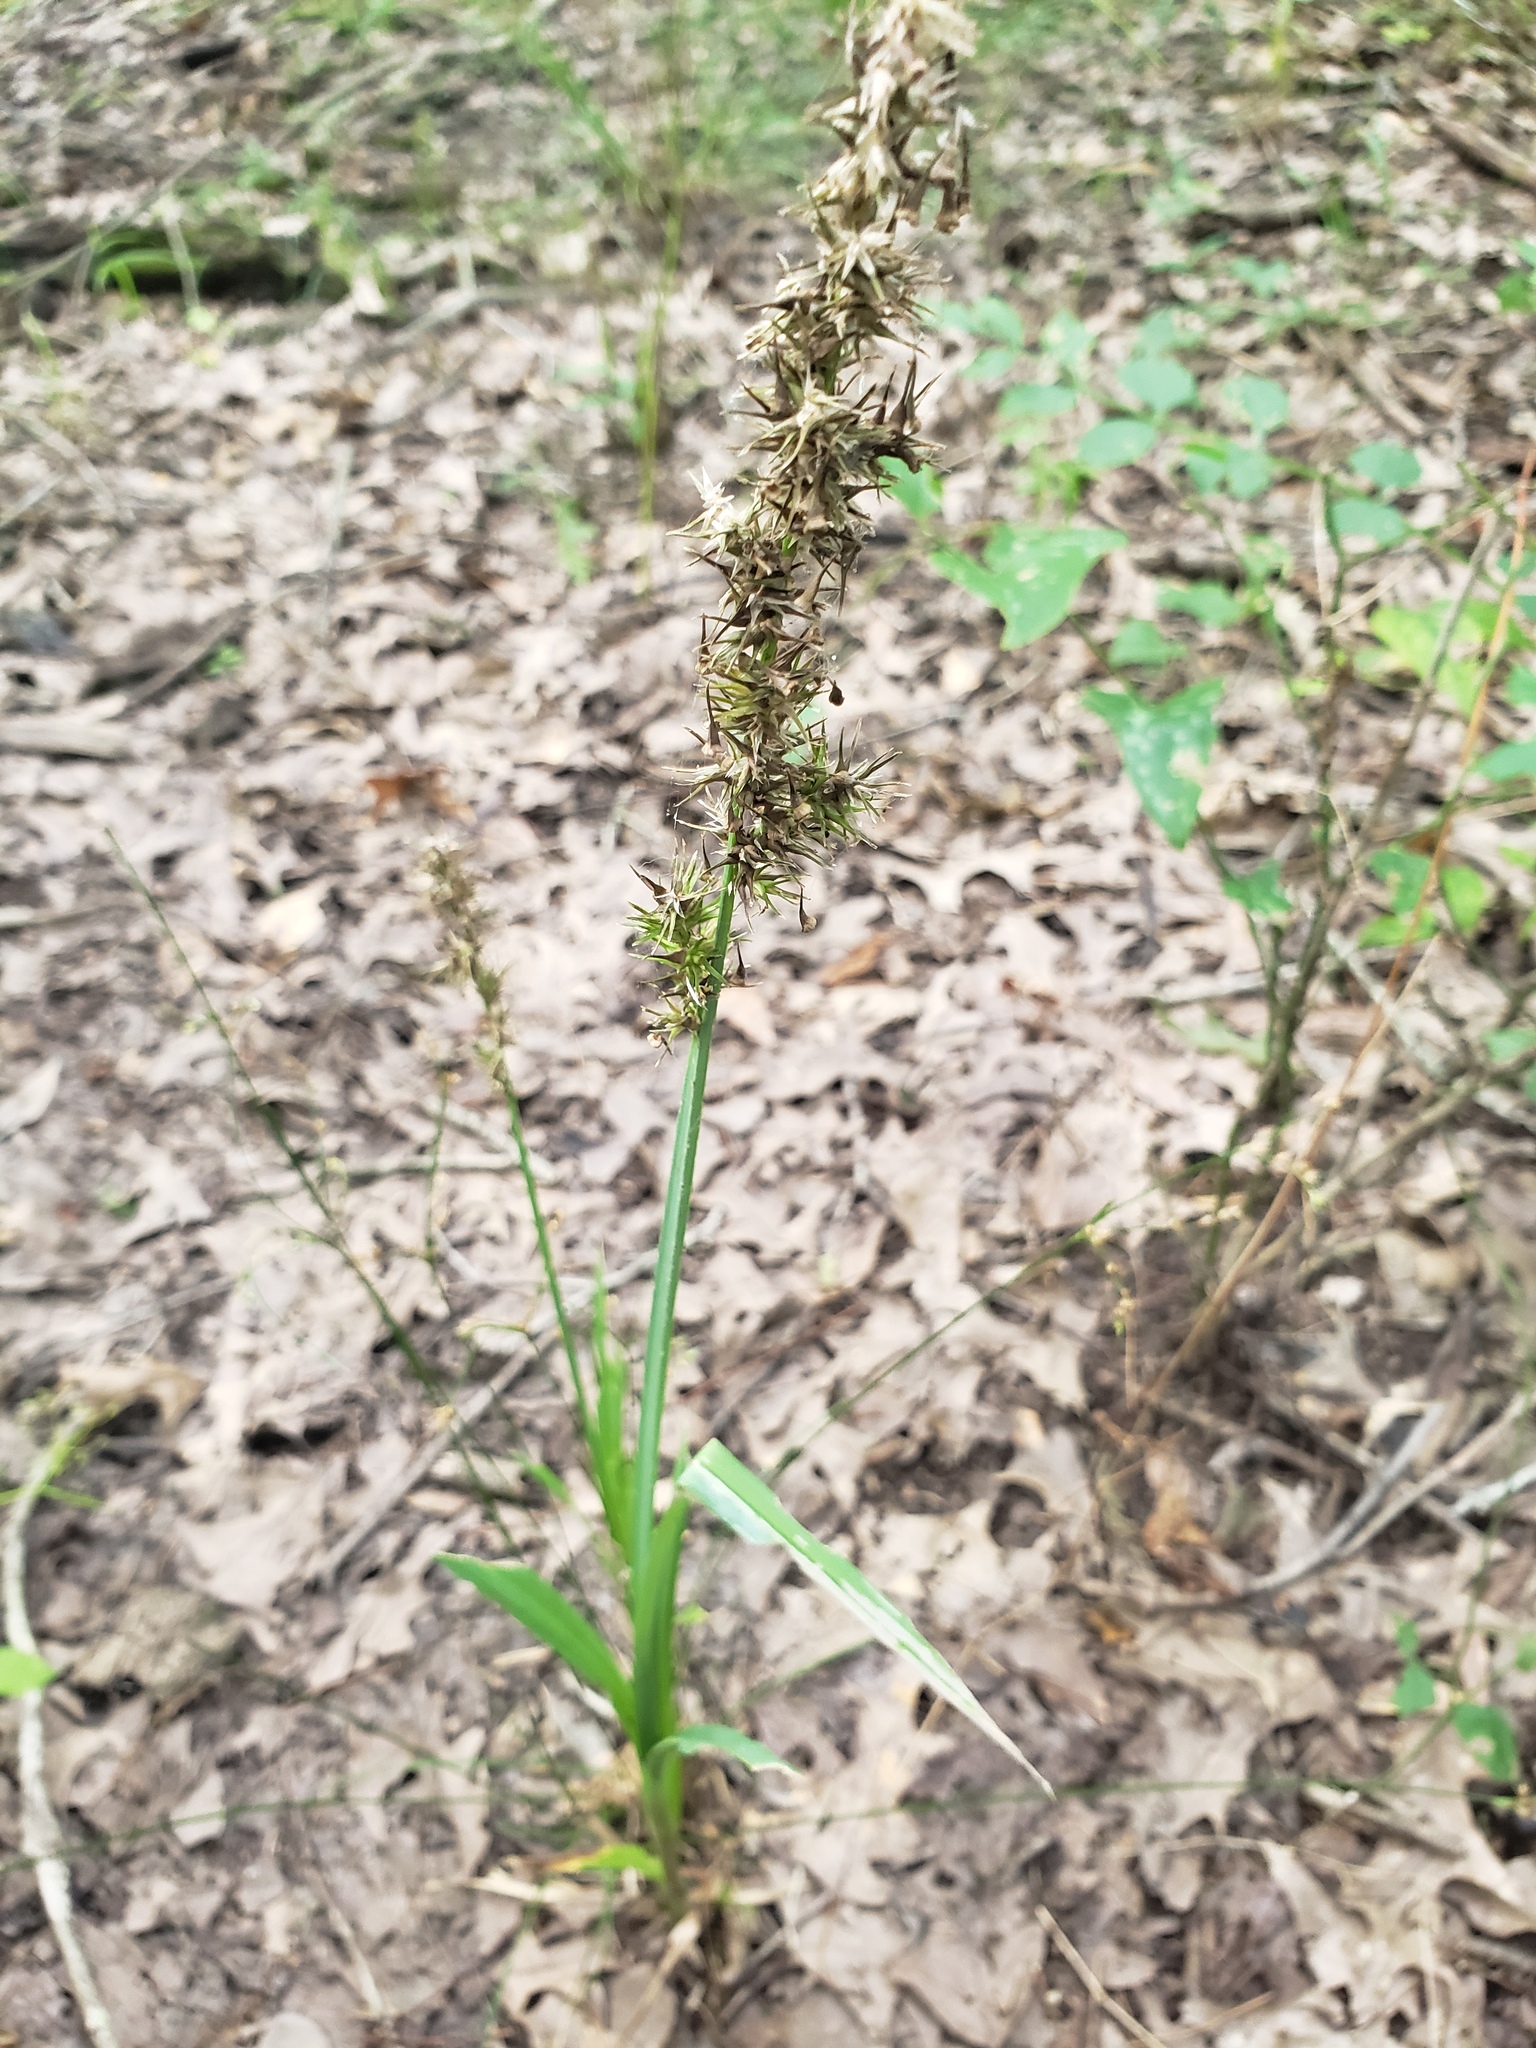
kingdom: Plantae
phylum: Tracheophyta
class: Liliopsida
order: Poales
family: Cyperaceae
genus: Carex
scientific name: Carex crus-corvi
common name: Crow-spur sedge
